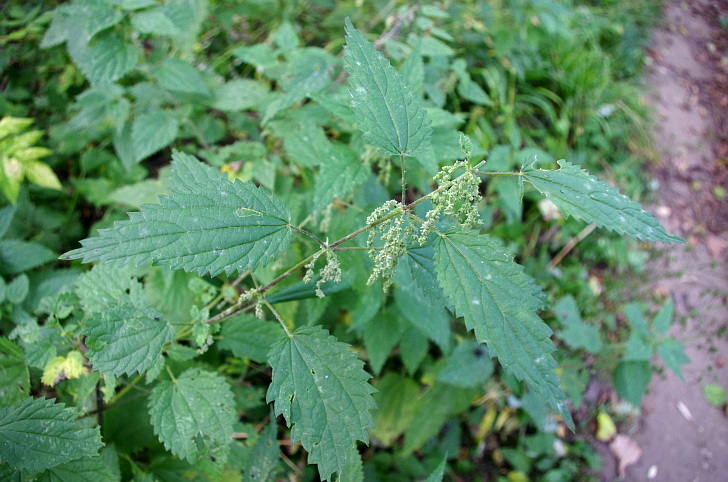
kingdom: Plantae
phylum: Tracheophyta
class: Magnoliopsida
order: Rosales
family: Urticaceae
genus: Urtica
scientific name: Urtica dioica
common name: Common nettle
